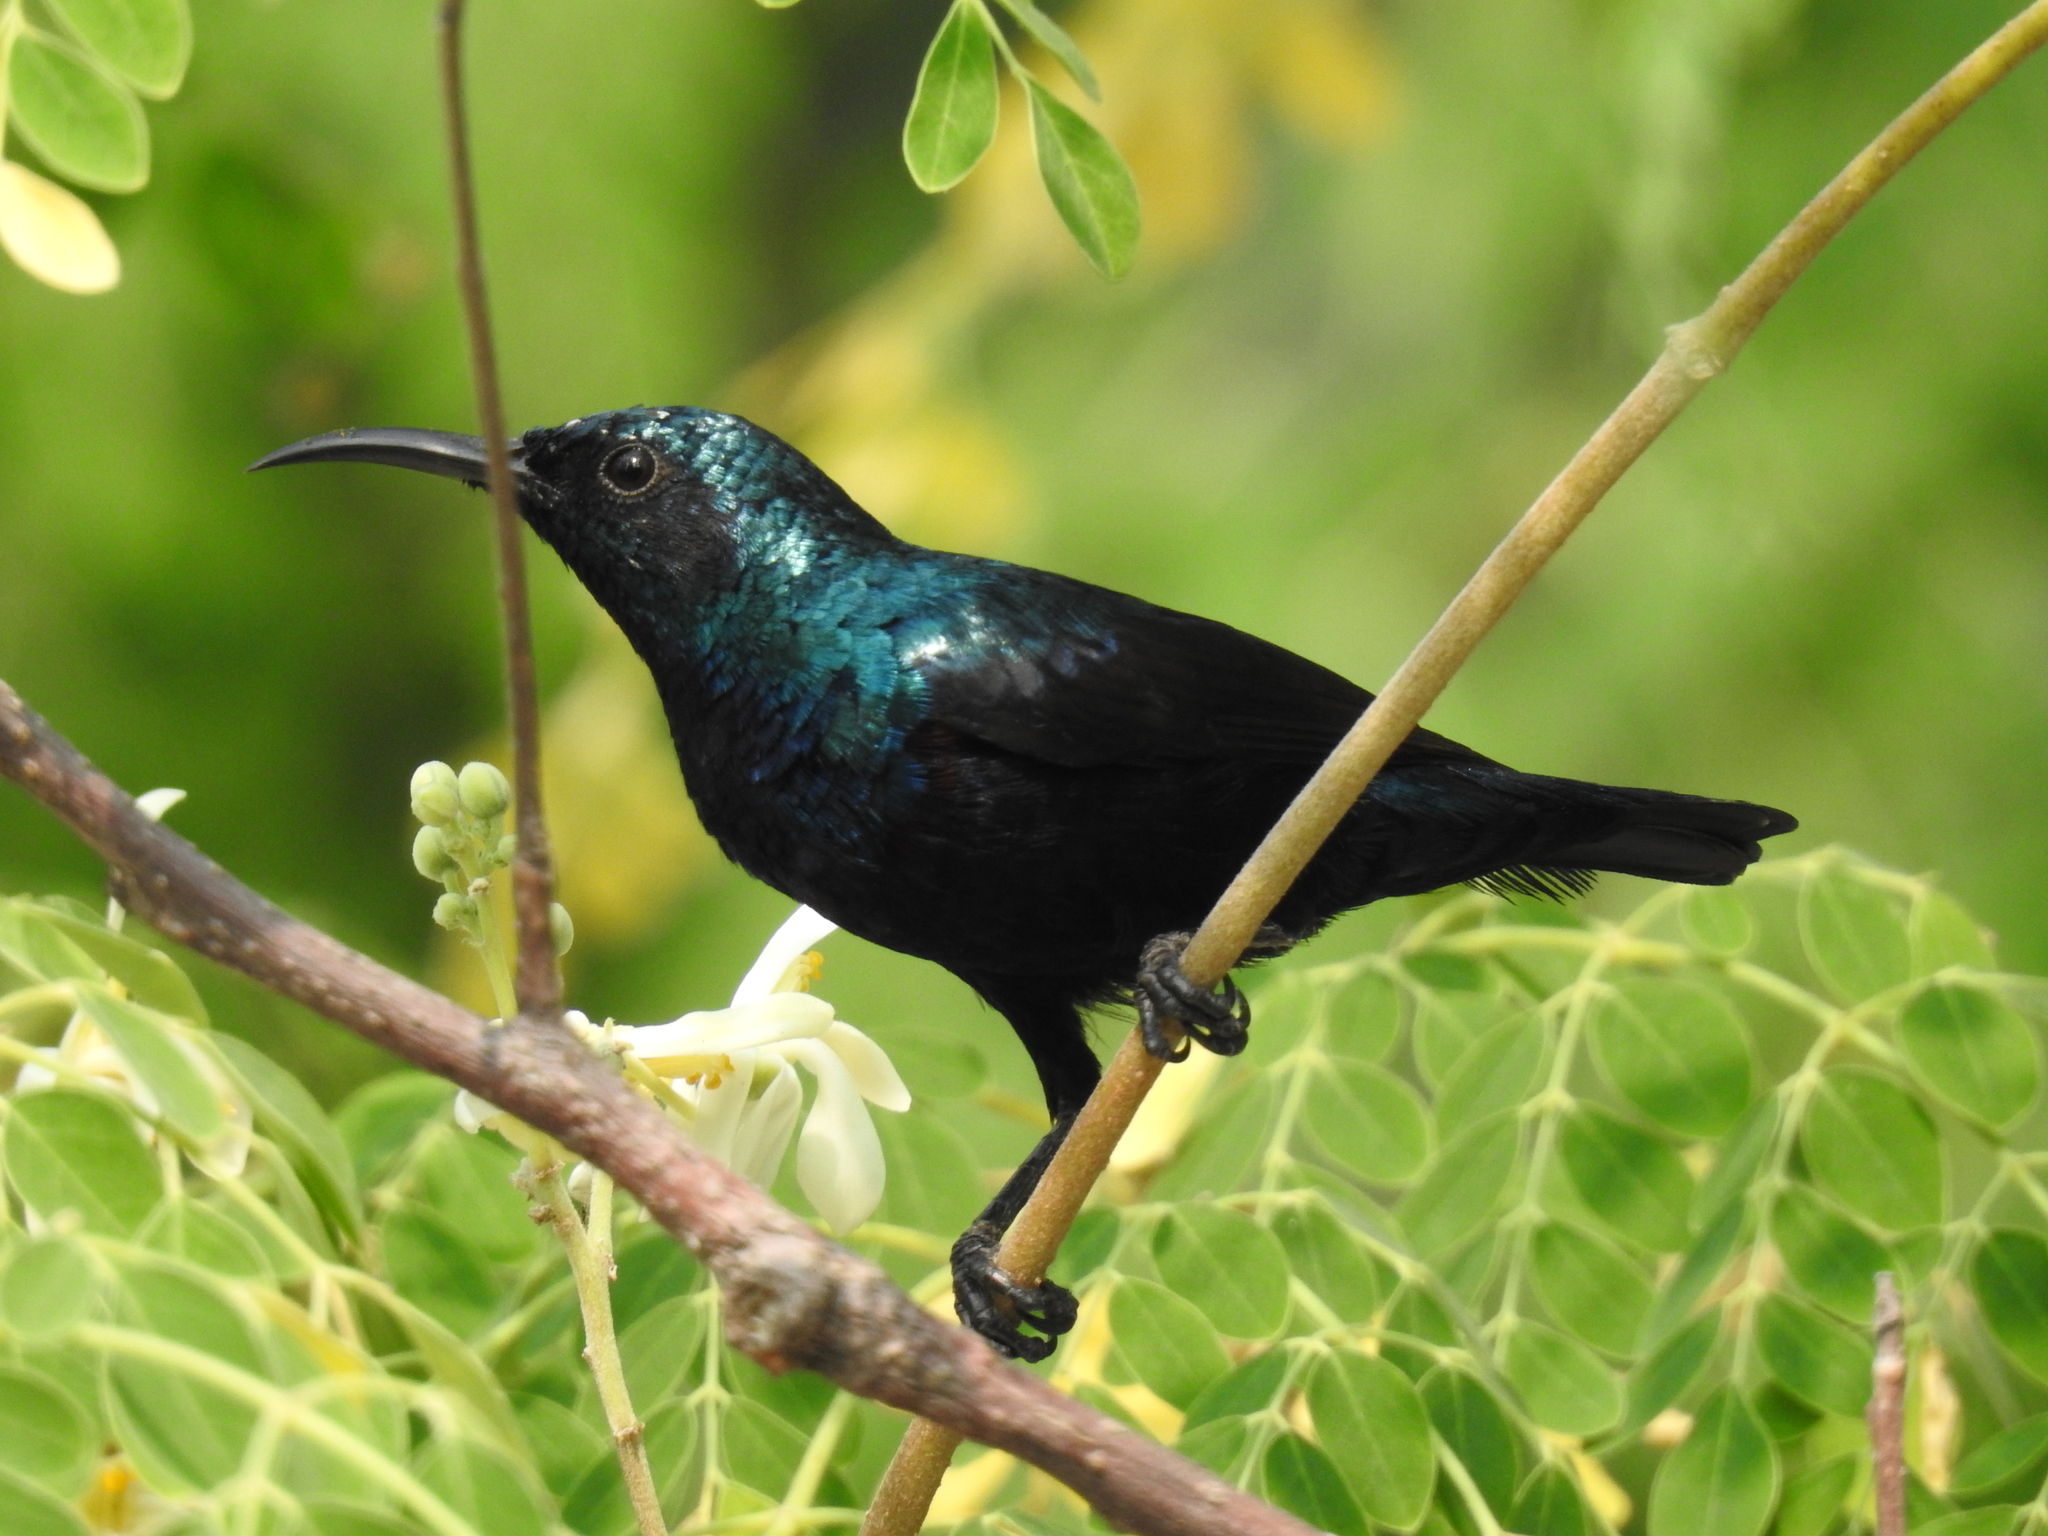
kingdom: Animalia
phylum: Chordata
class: Aves
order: Passeriformes
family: Nectariniidae
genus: Cinnyris
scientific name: Cinnyris asiaticus
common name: Purple sunbird
